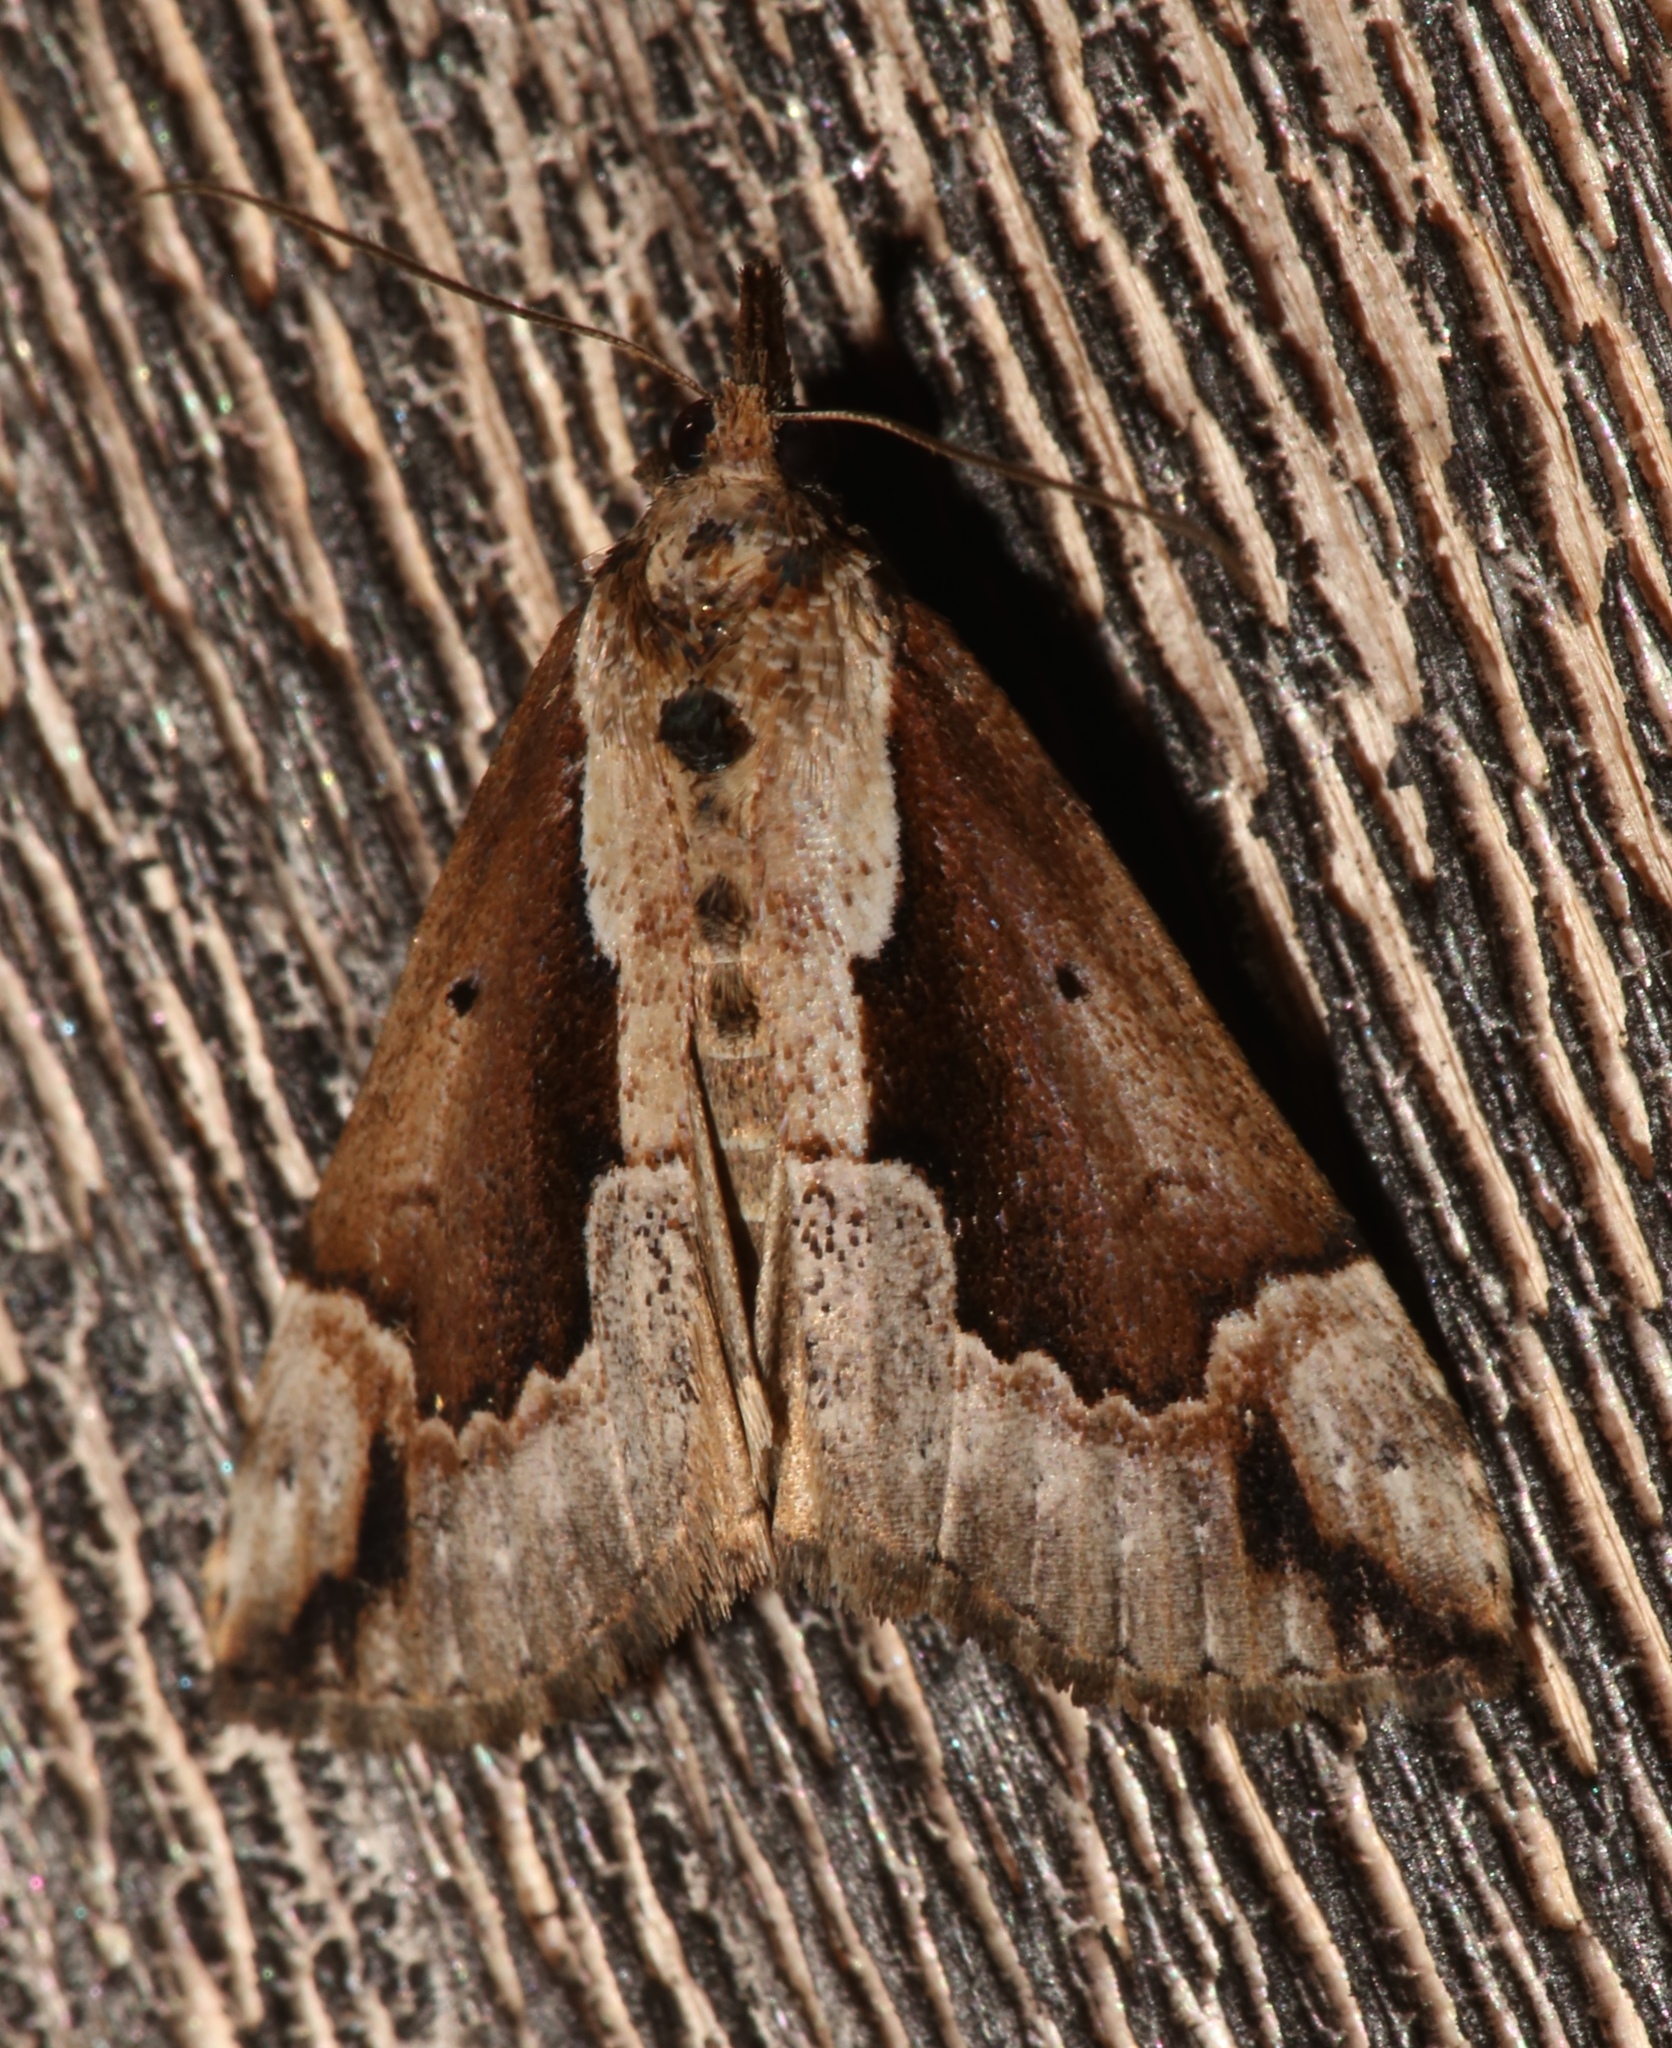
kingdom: Animalia
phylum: Arthropoda
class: Insecta
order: Lepidoptera
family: Erebidae
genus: Hypena
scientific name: Hypena baltimoralis
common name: Baltimore snout
